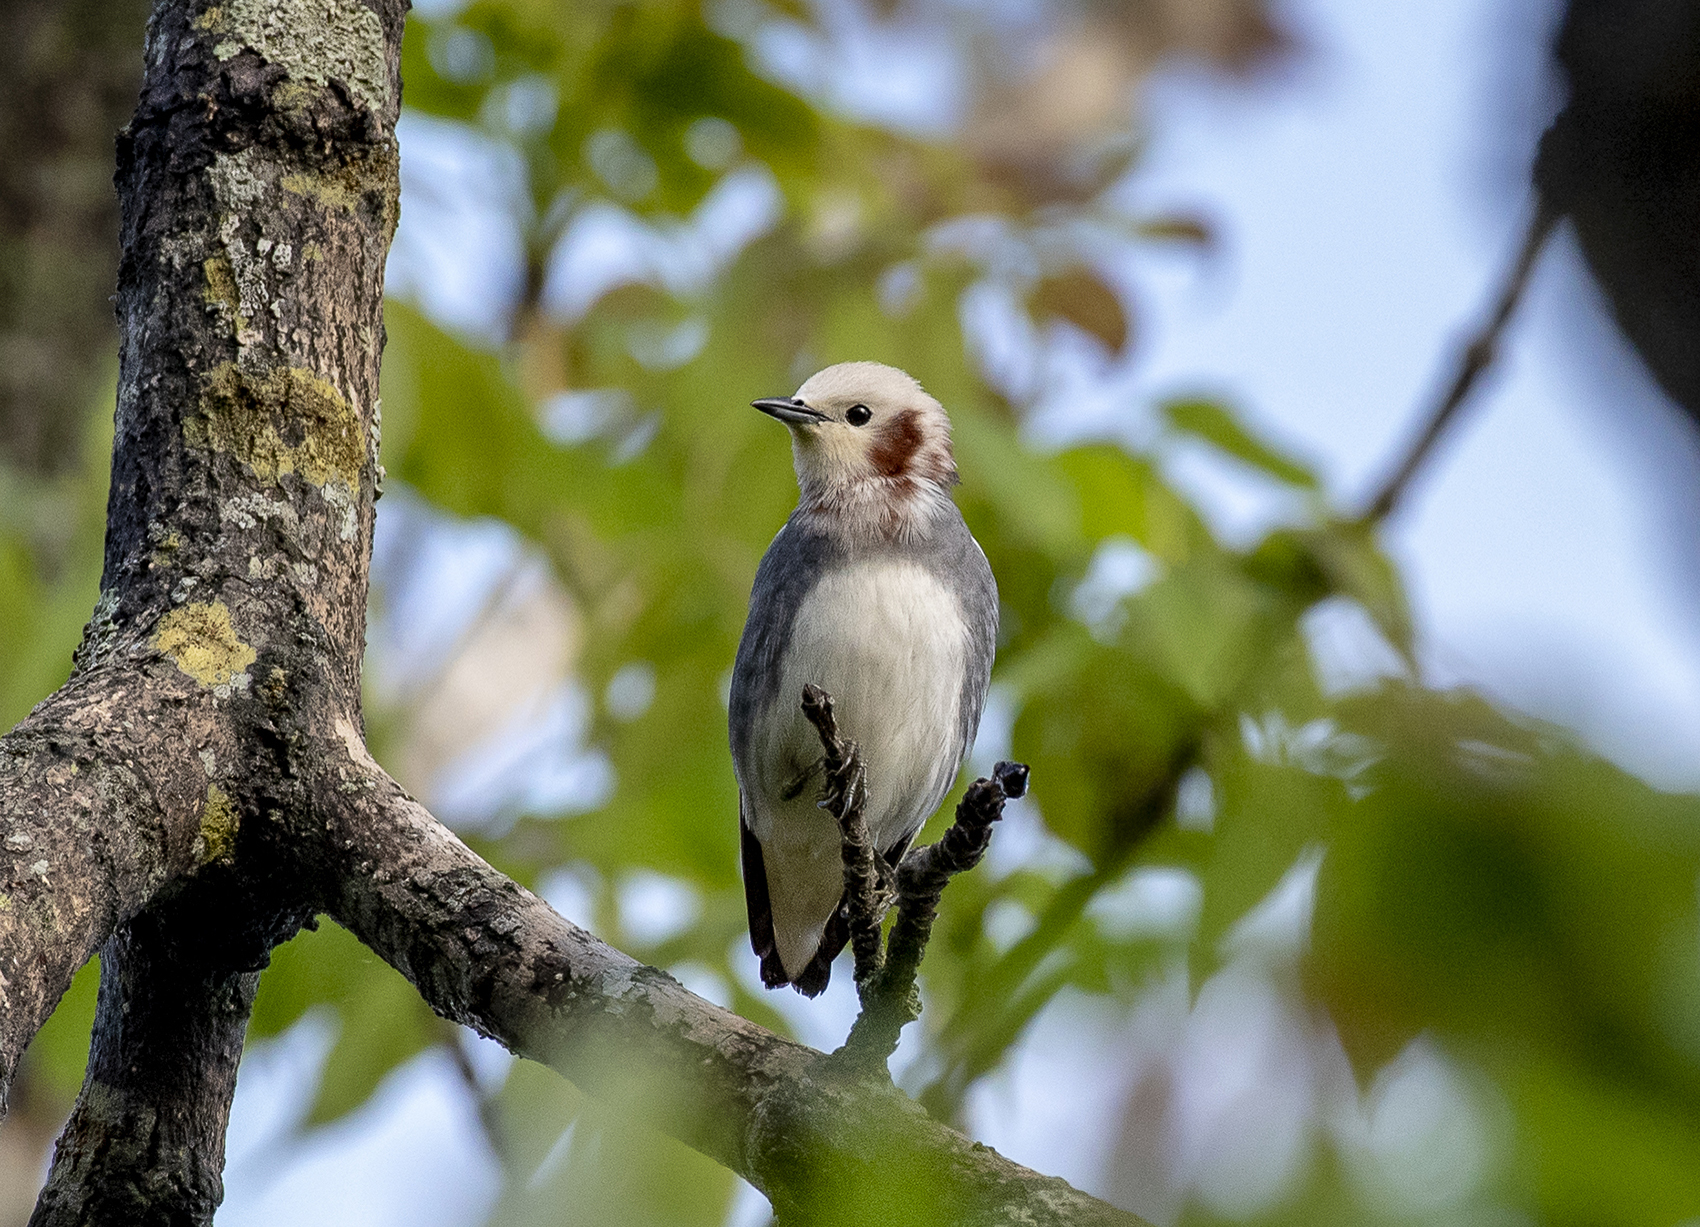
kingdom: Animalia
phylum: Chordata
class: Aves
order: Passeriformes
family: Sturnidae
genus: Agropsar
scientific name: Agropsar philippensis
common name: Chestnut-cheeked starling
